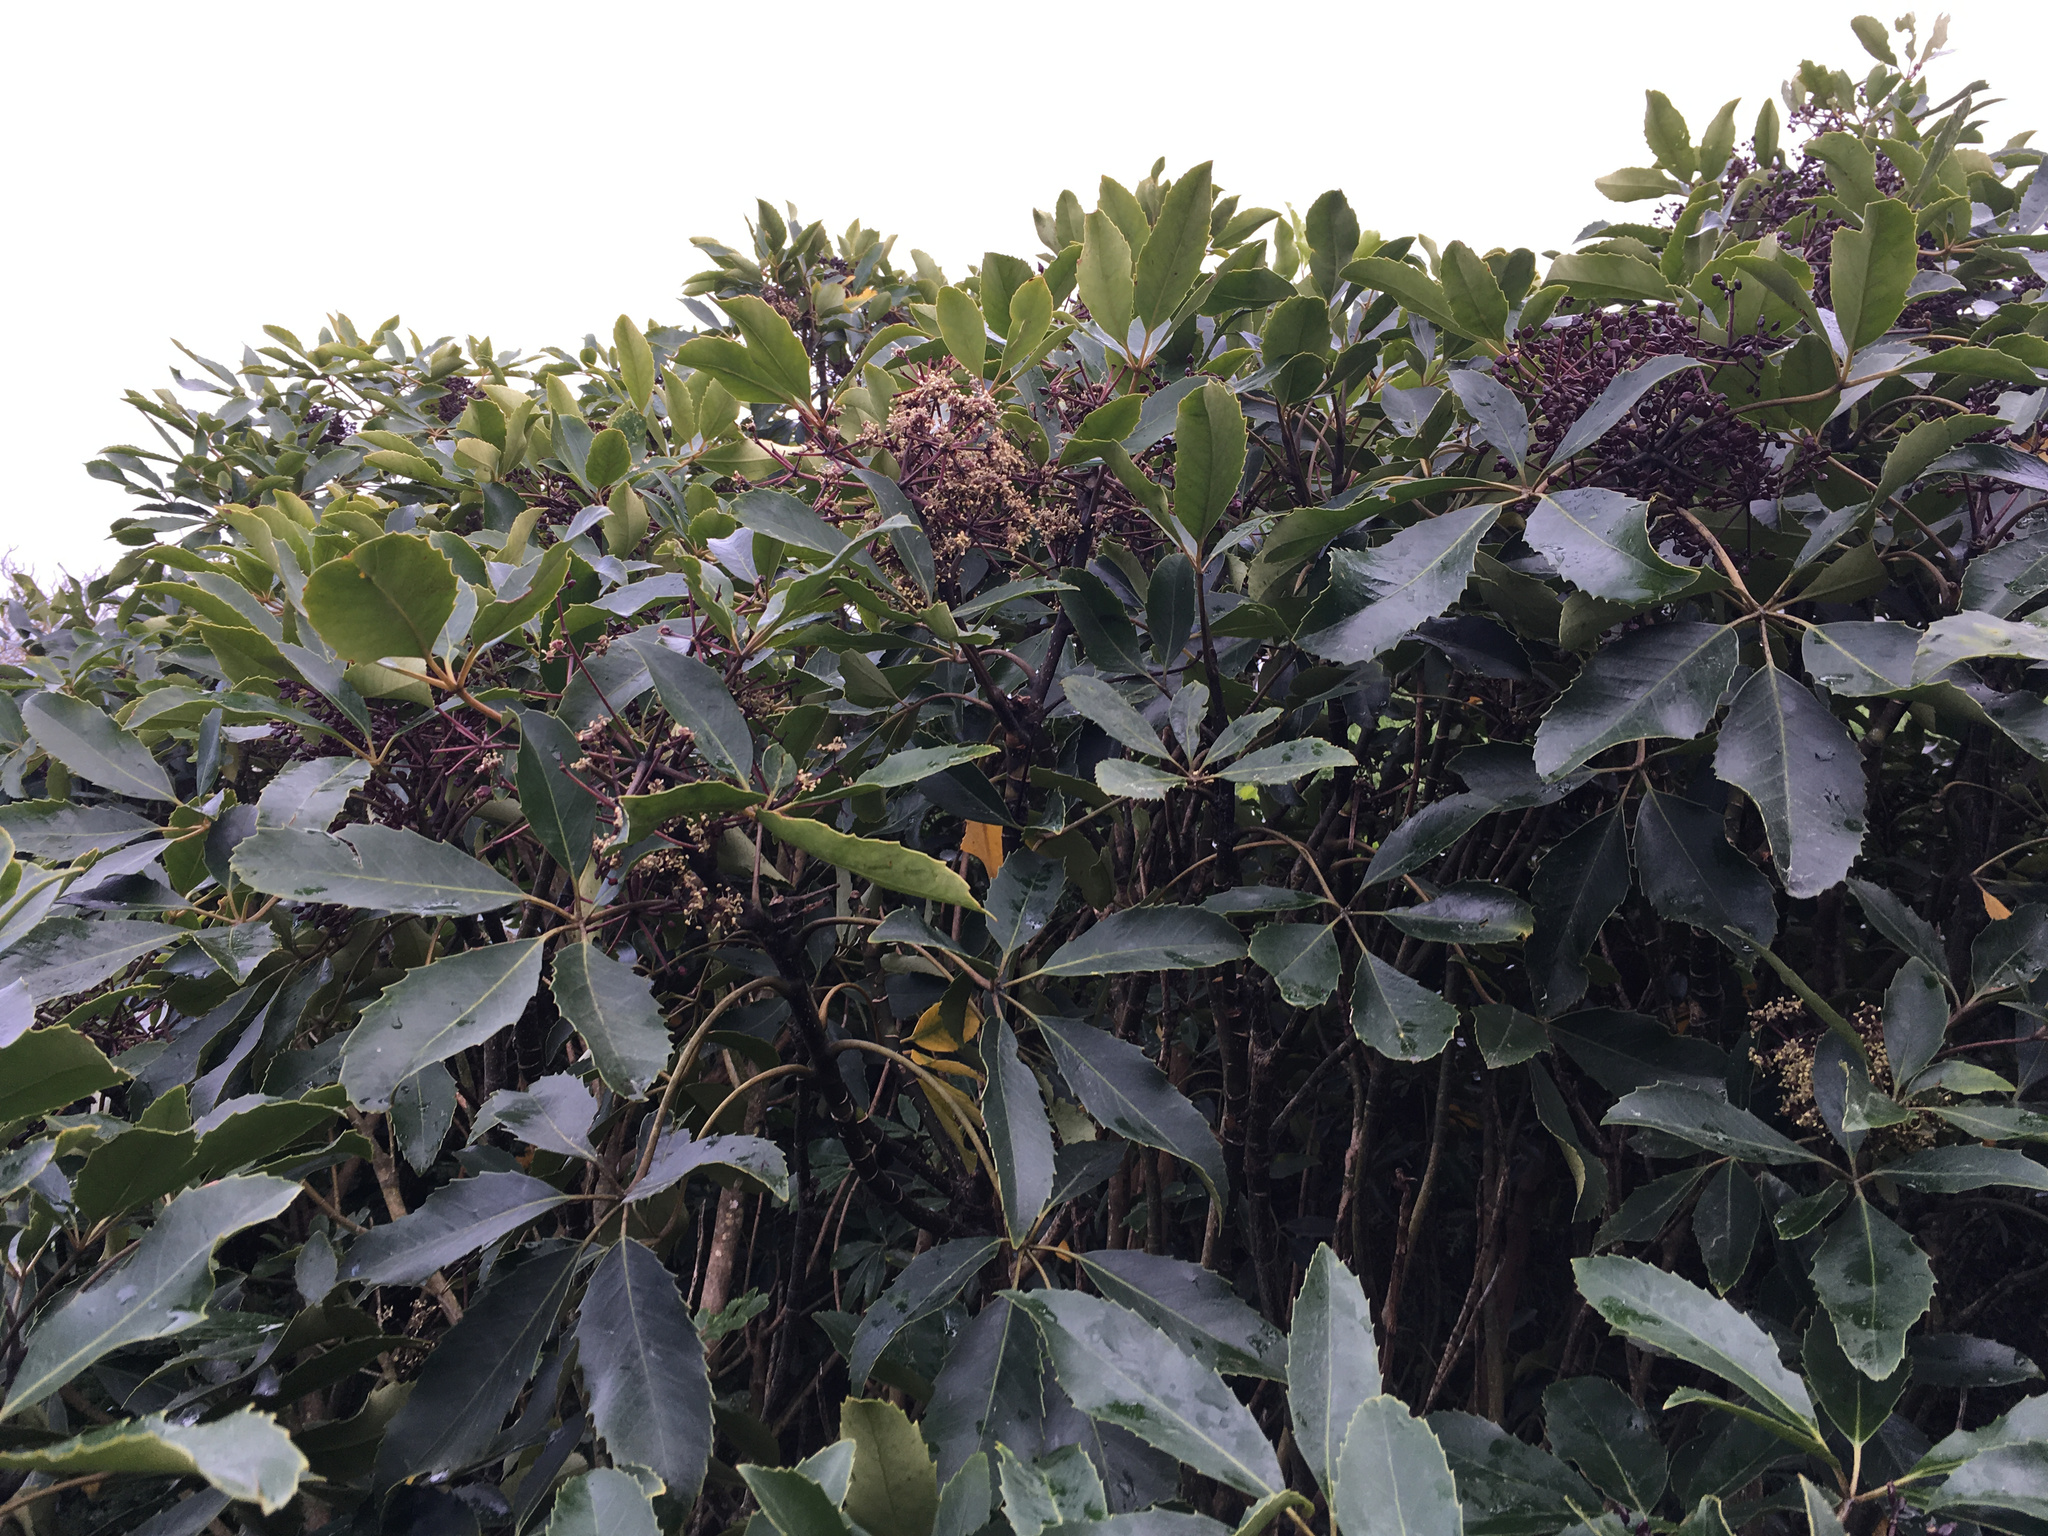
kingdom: Plantae
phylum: Tracheophyta
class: Magnoliopsida
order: Apiales
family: Araliaceae
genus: Neopanax
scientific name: Neopanax arboreus
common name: Five-fingers
